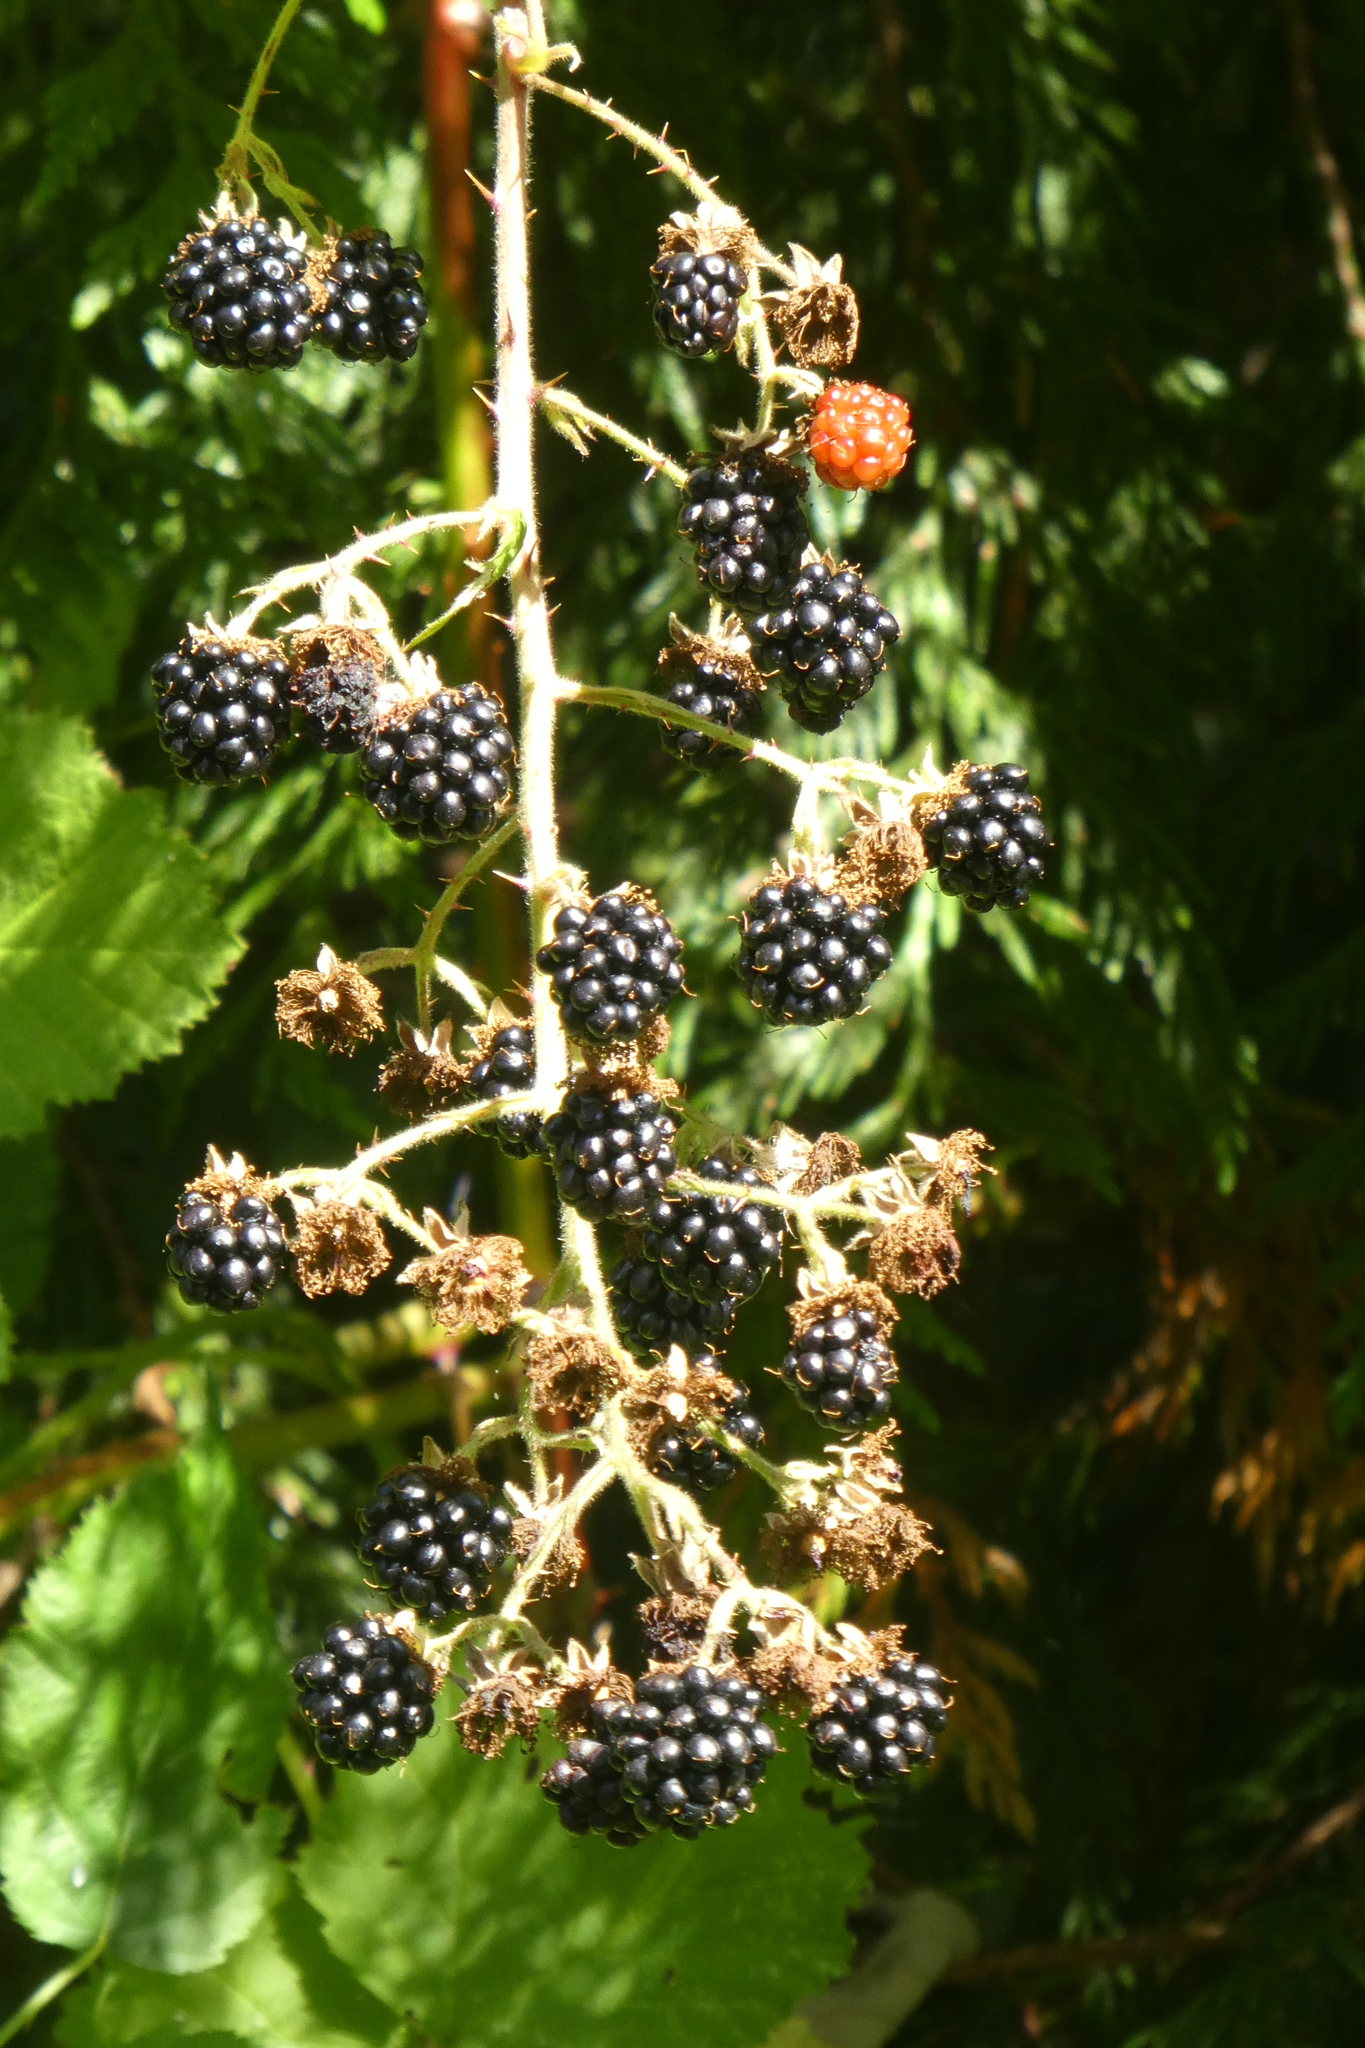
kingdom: Plantae
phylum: Tracheophyta
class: Magnoliopsida
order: Rosales
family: Rosaceae
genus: Rubus
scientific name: Rubus bifrons
